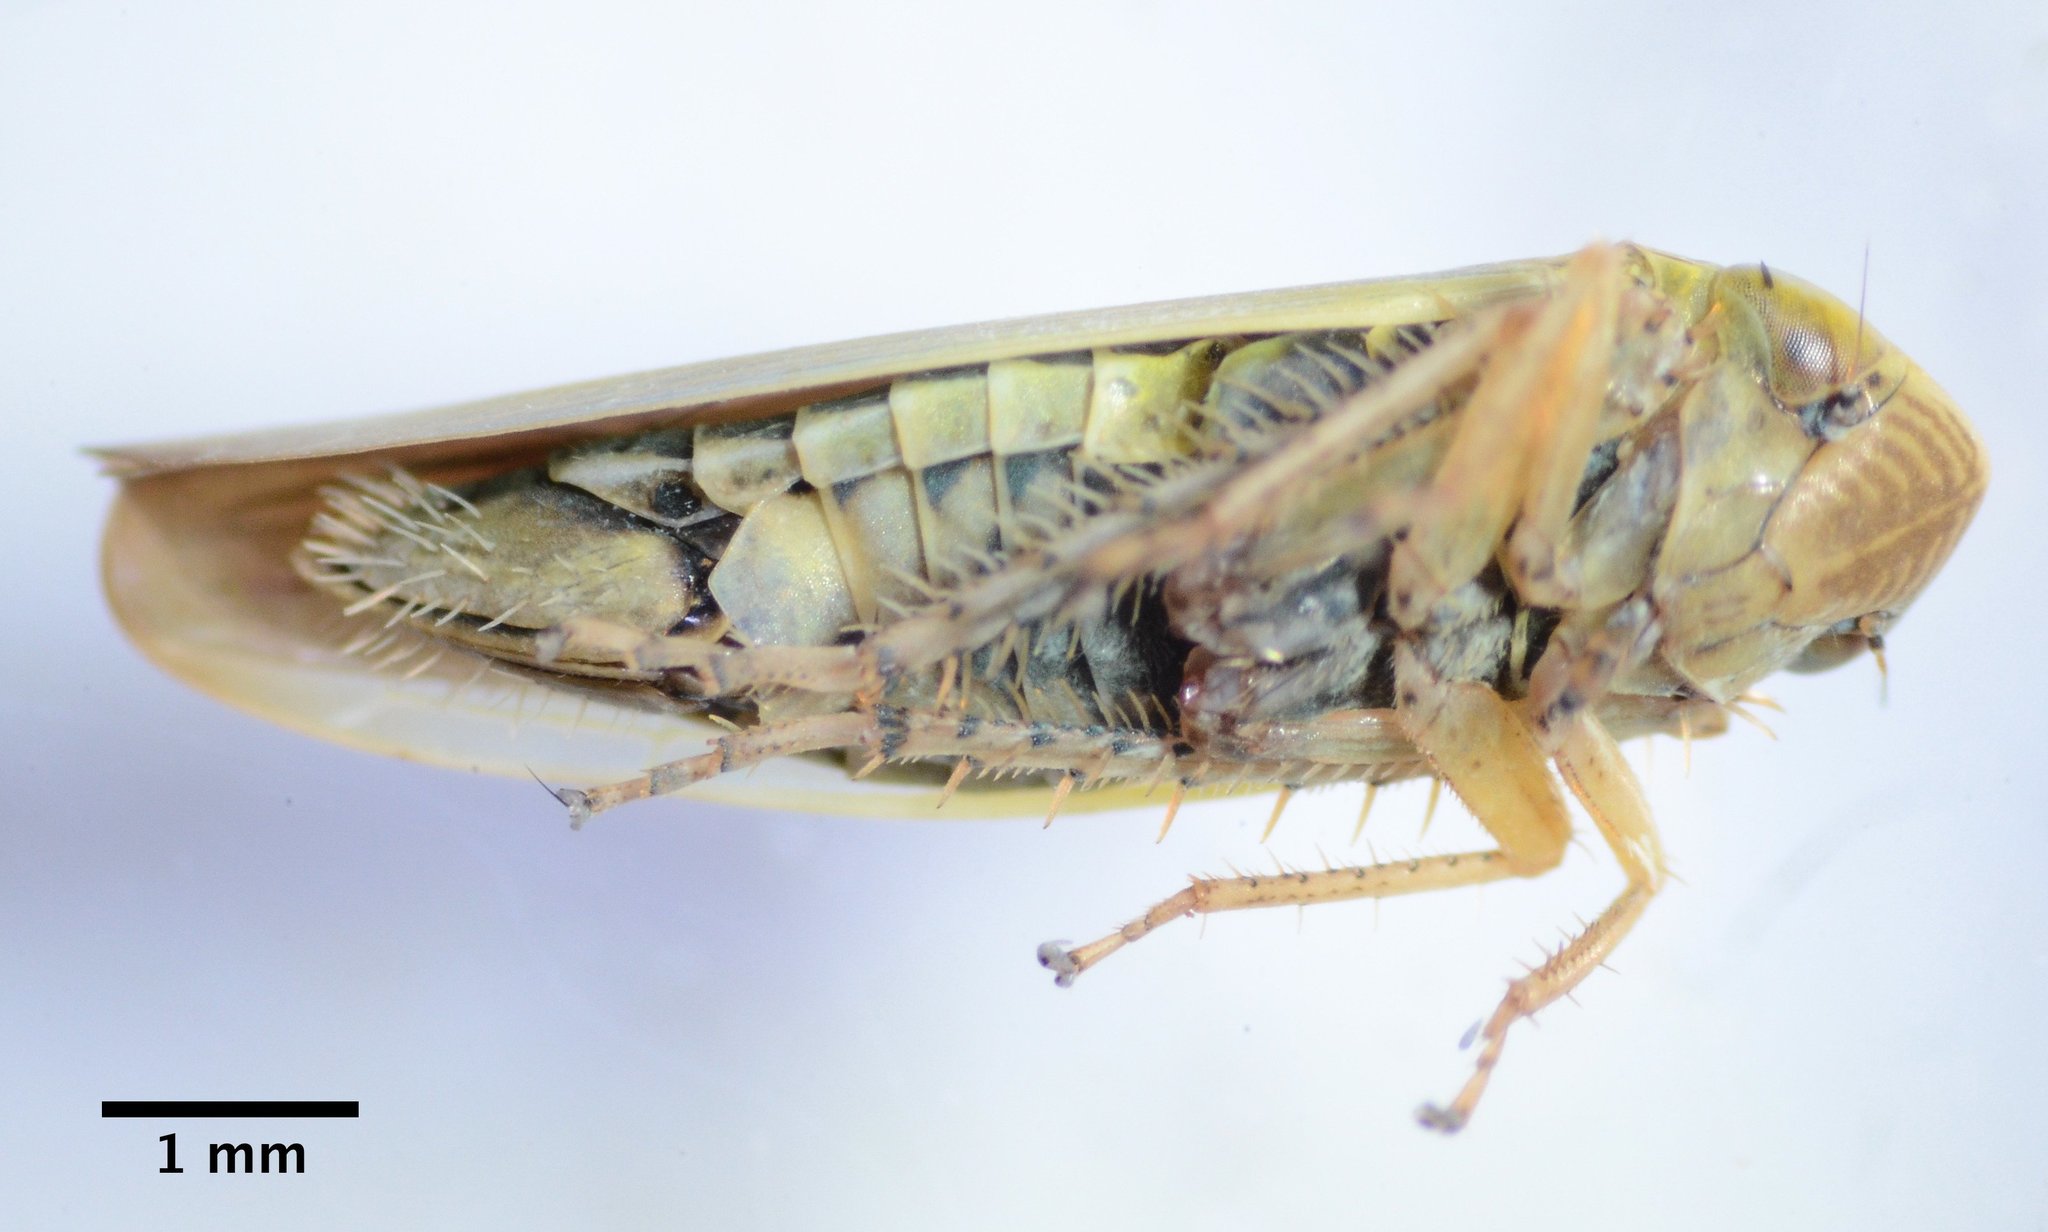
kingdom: Animalia
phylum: Arthropoda
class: Insecta
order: Hemiptera
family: Cicadellidae
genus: Thamnotettix
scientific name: Thamnotettix zelleri
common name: Leafhopper
